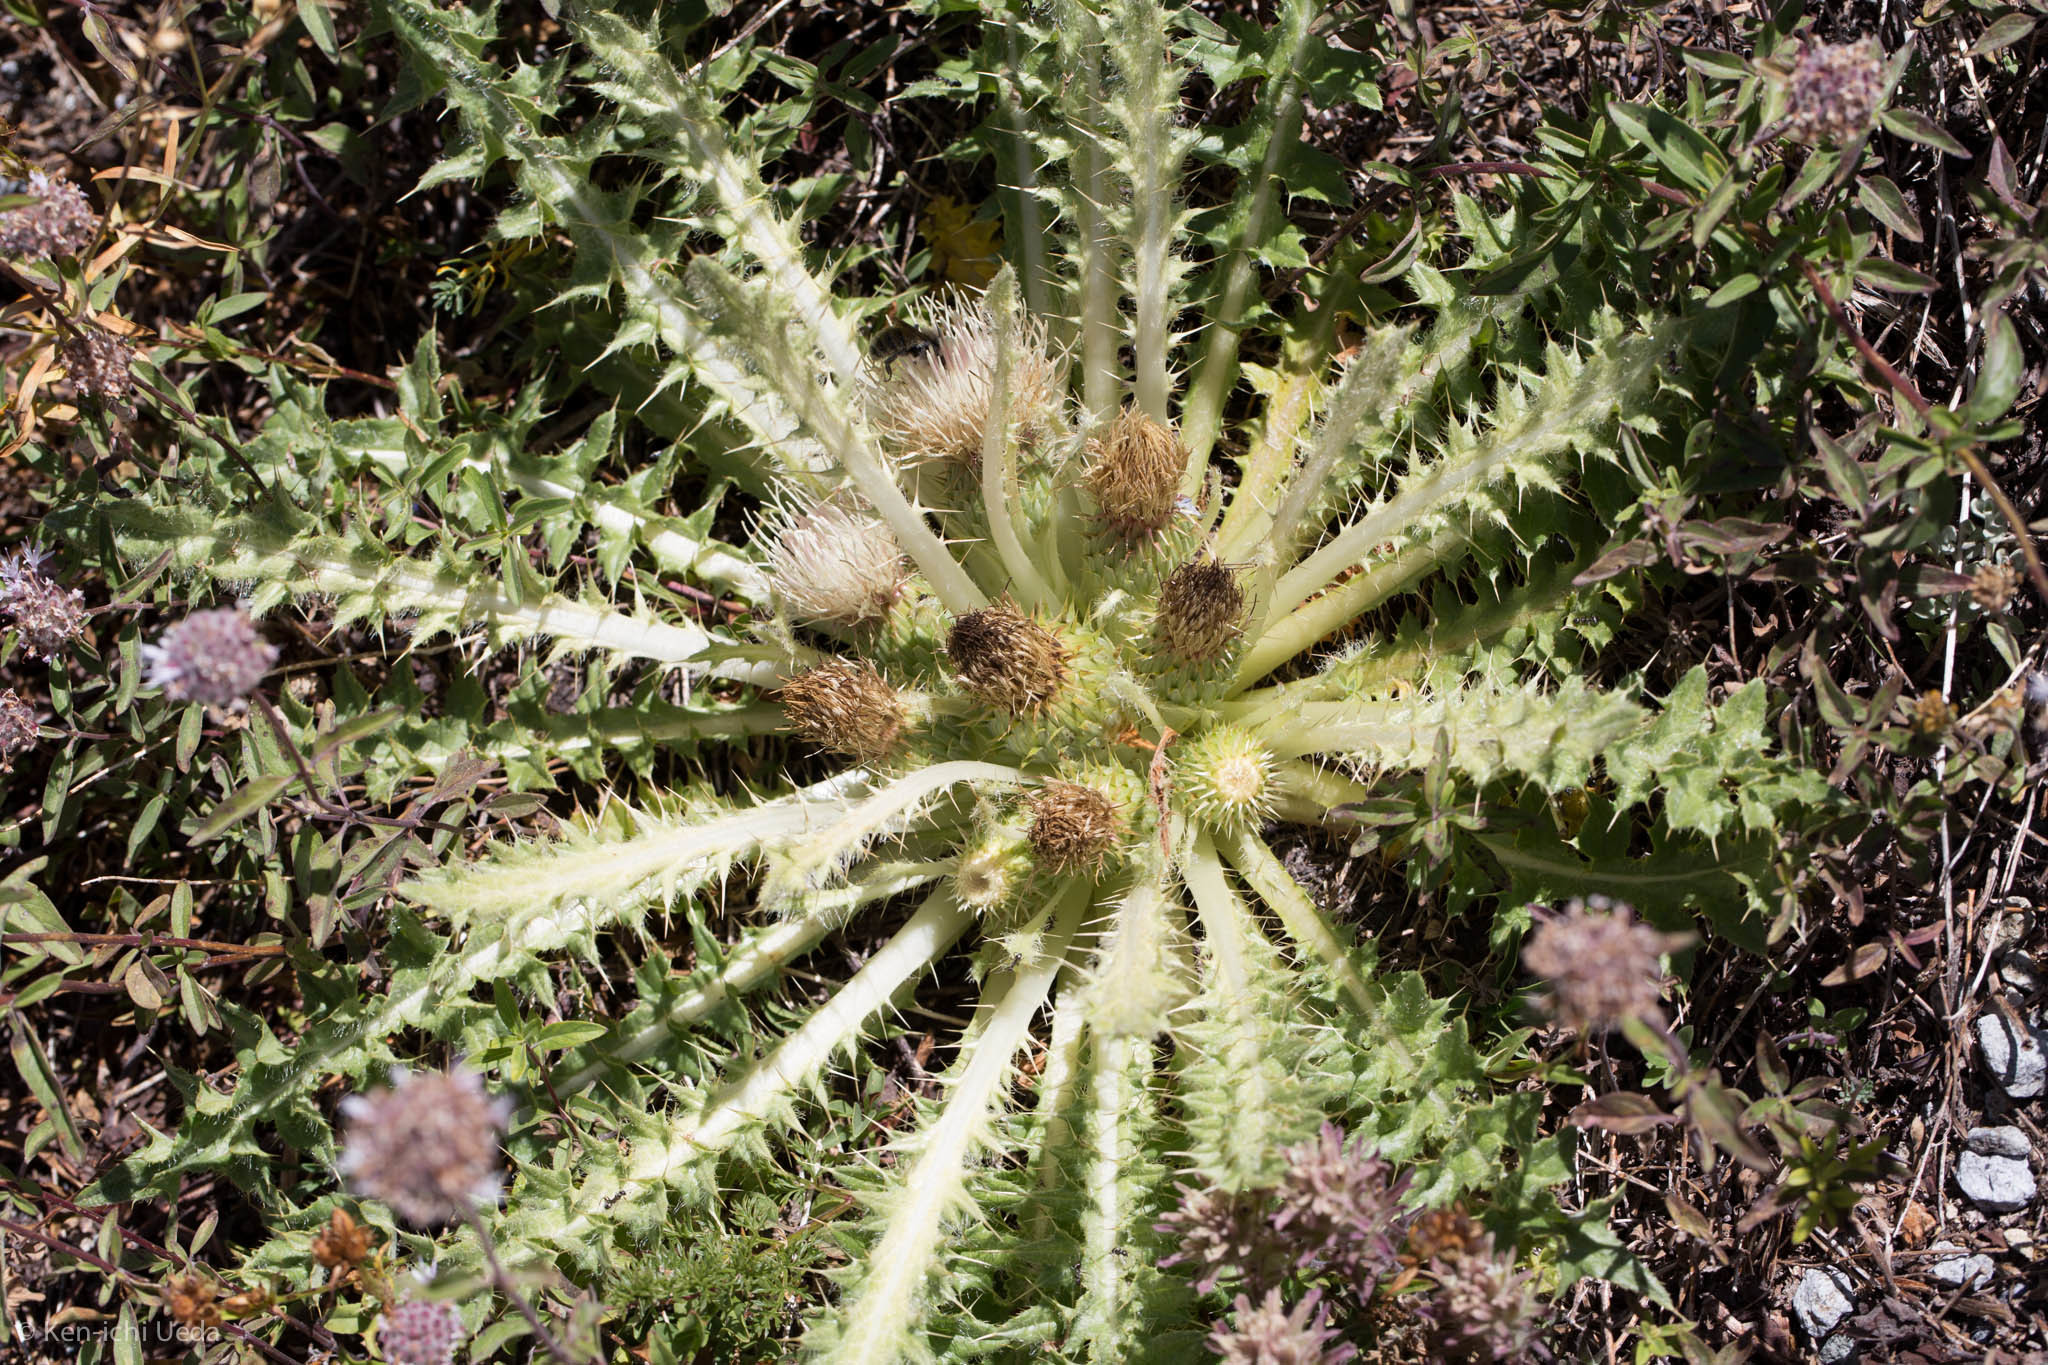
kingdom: Plantae
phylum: Tracheophyta
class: Magnoliopsida
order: Asterales
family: Asteraceae
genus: Cirsium
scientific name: Cirsium scariosum
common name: Meadow thistle
